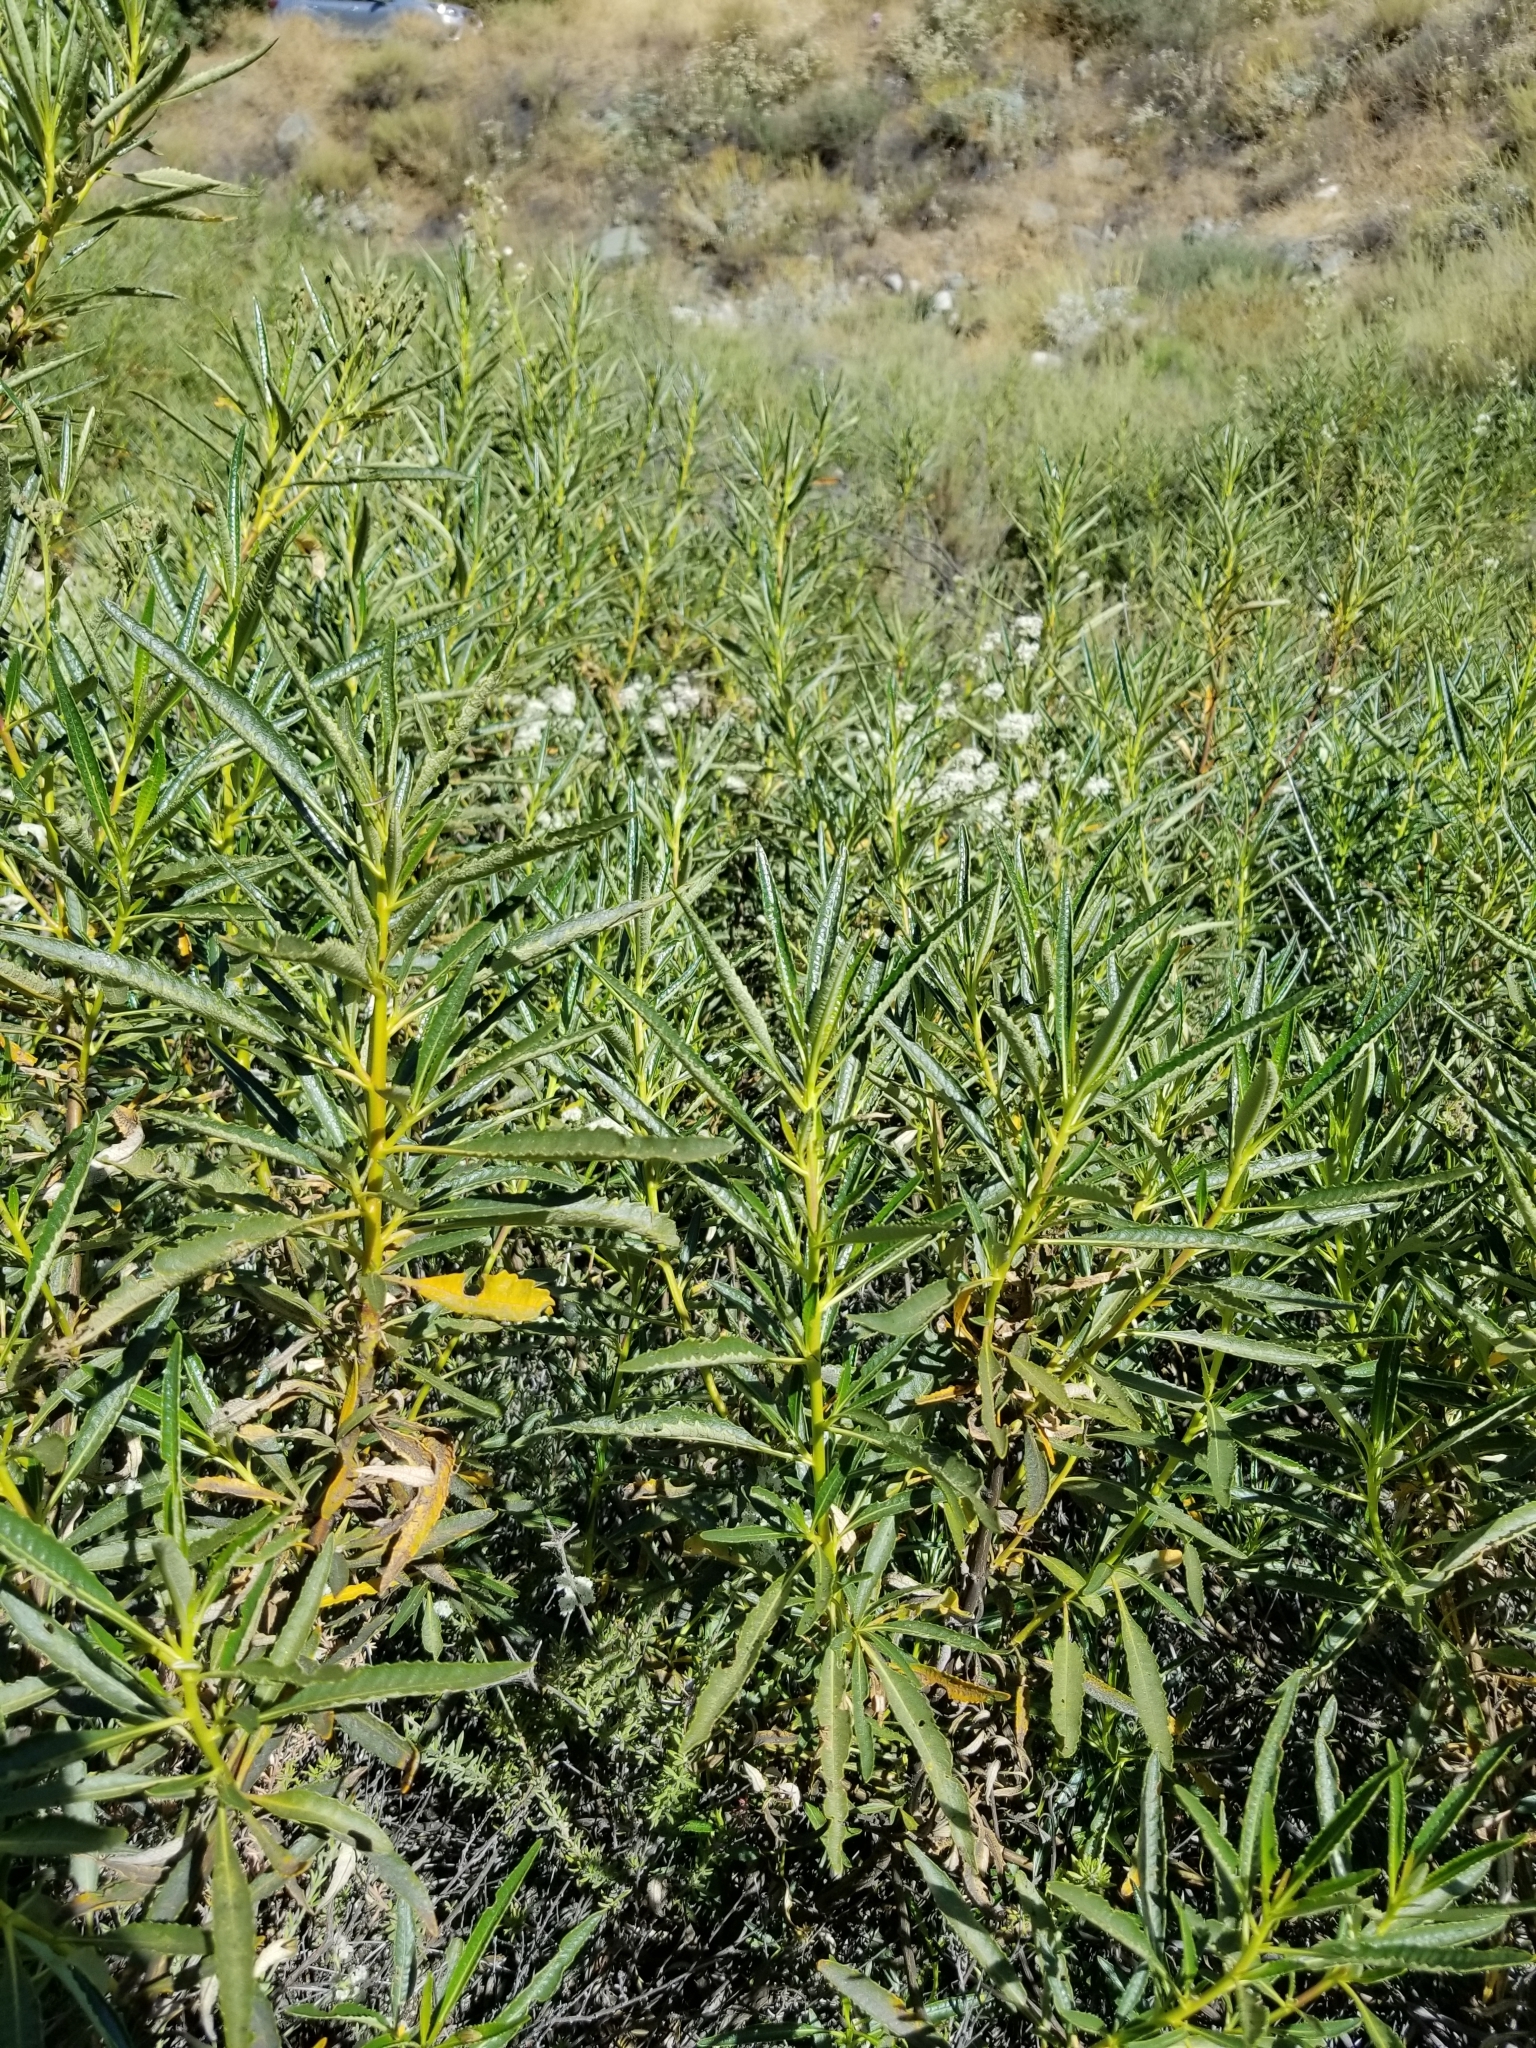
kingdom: Plantae
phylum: Tracheophyta
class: Magnoliopsida
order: Caryophyllales
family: Polygonaceae
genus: Eriogonum
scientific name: Eriogonum fasciculatum
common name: California wild buckwheat
